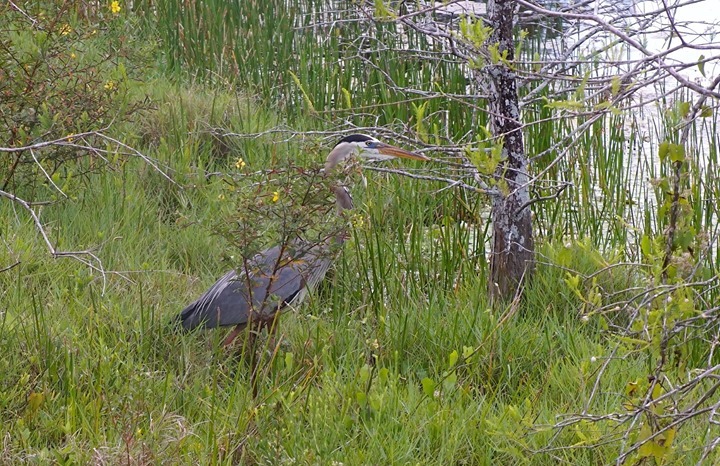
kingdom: Animalia
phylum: Chordata
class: Aves
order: Pelecaniformes
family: Ardeidae
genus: Ardea
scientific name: Ardea herodias
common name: Great blue heron
